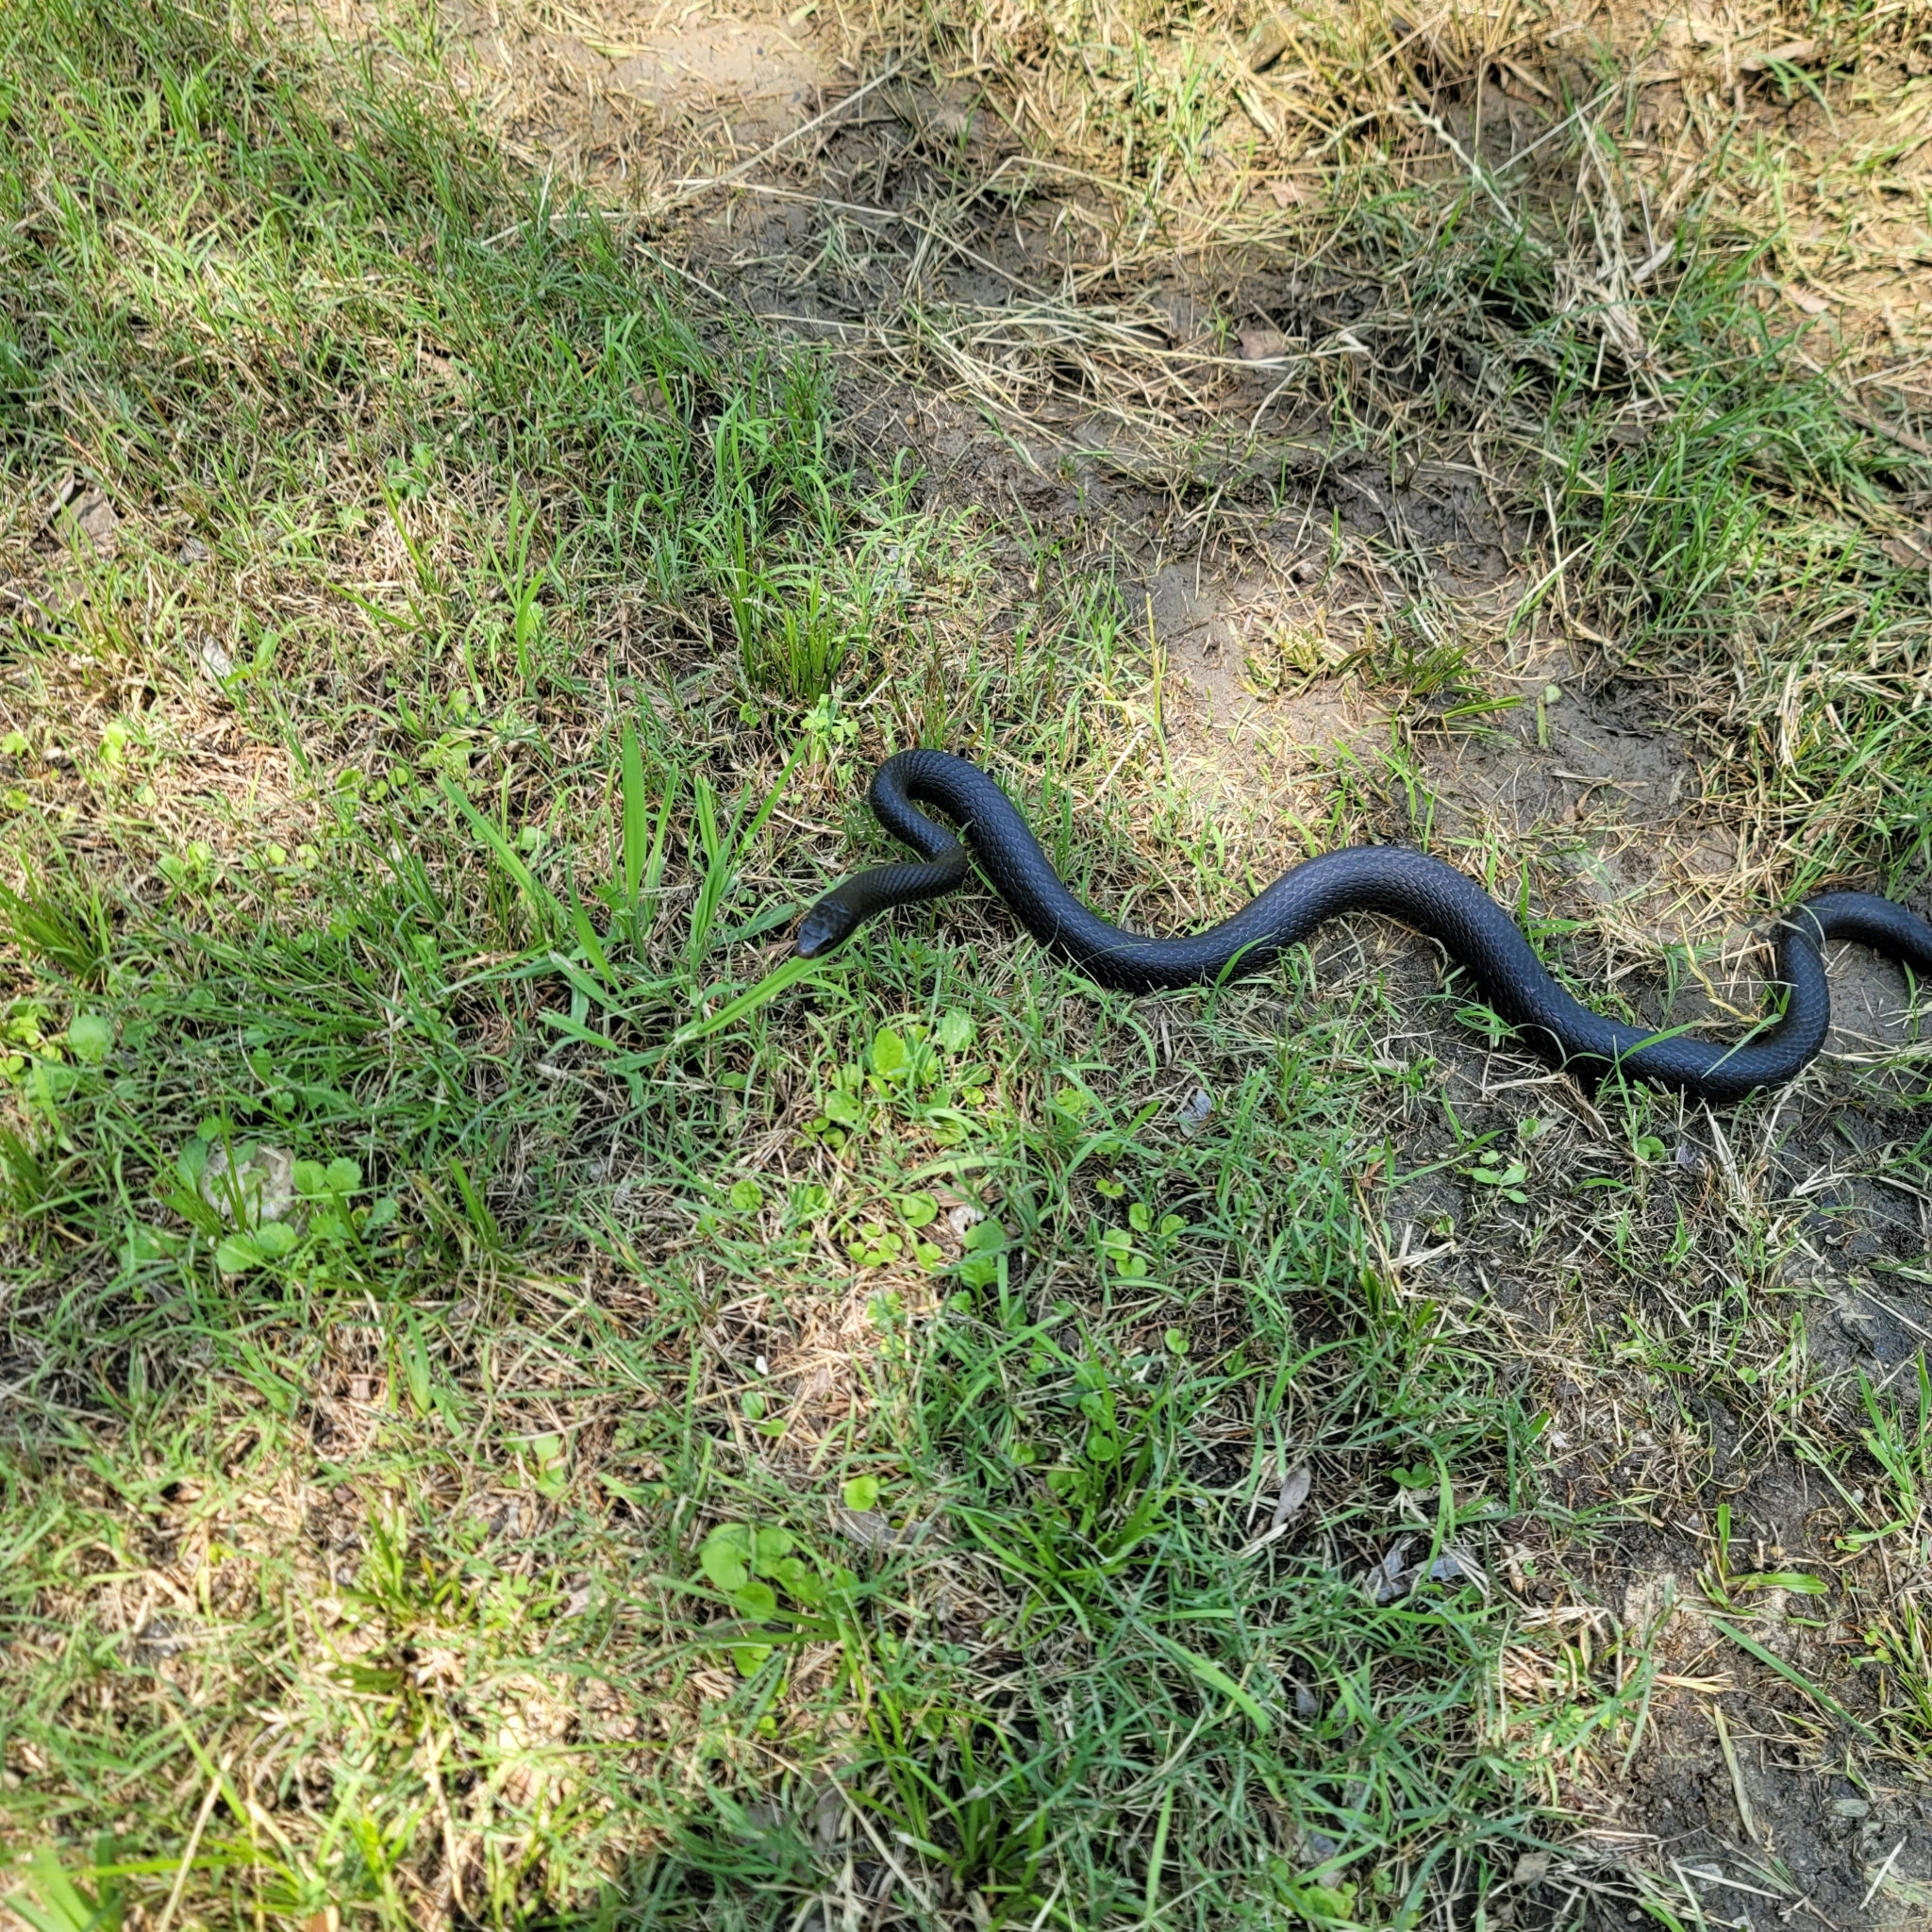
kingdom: Animalia
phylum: Chordata
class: Squamata
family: Colubridae
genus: Coluber
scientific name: Coluber constrictor
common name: Eastern racer
